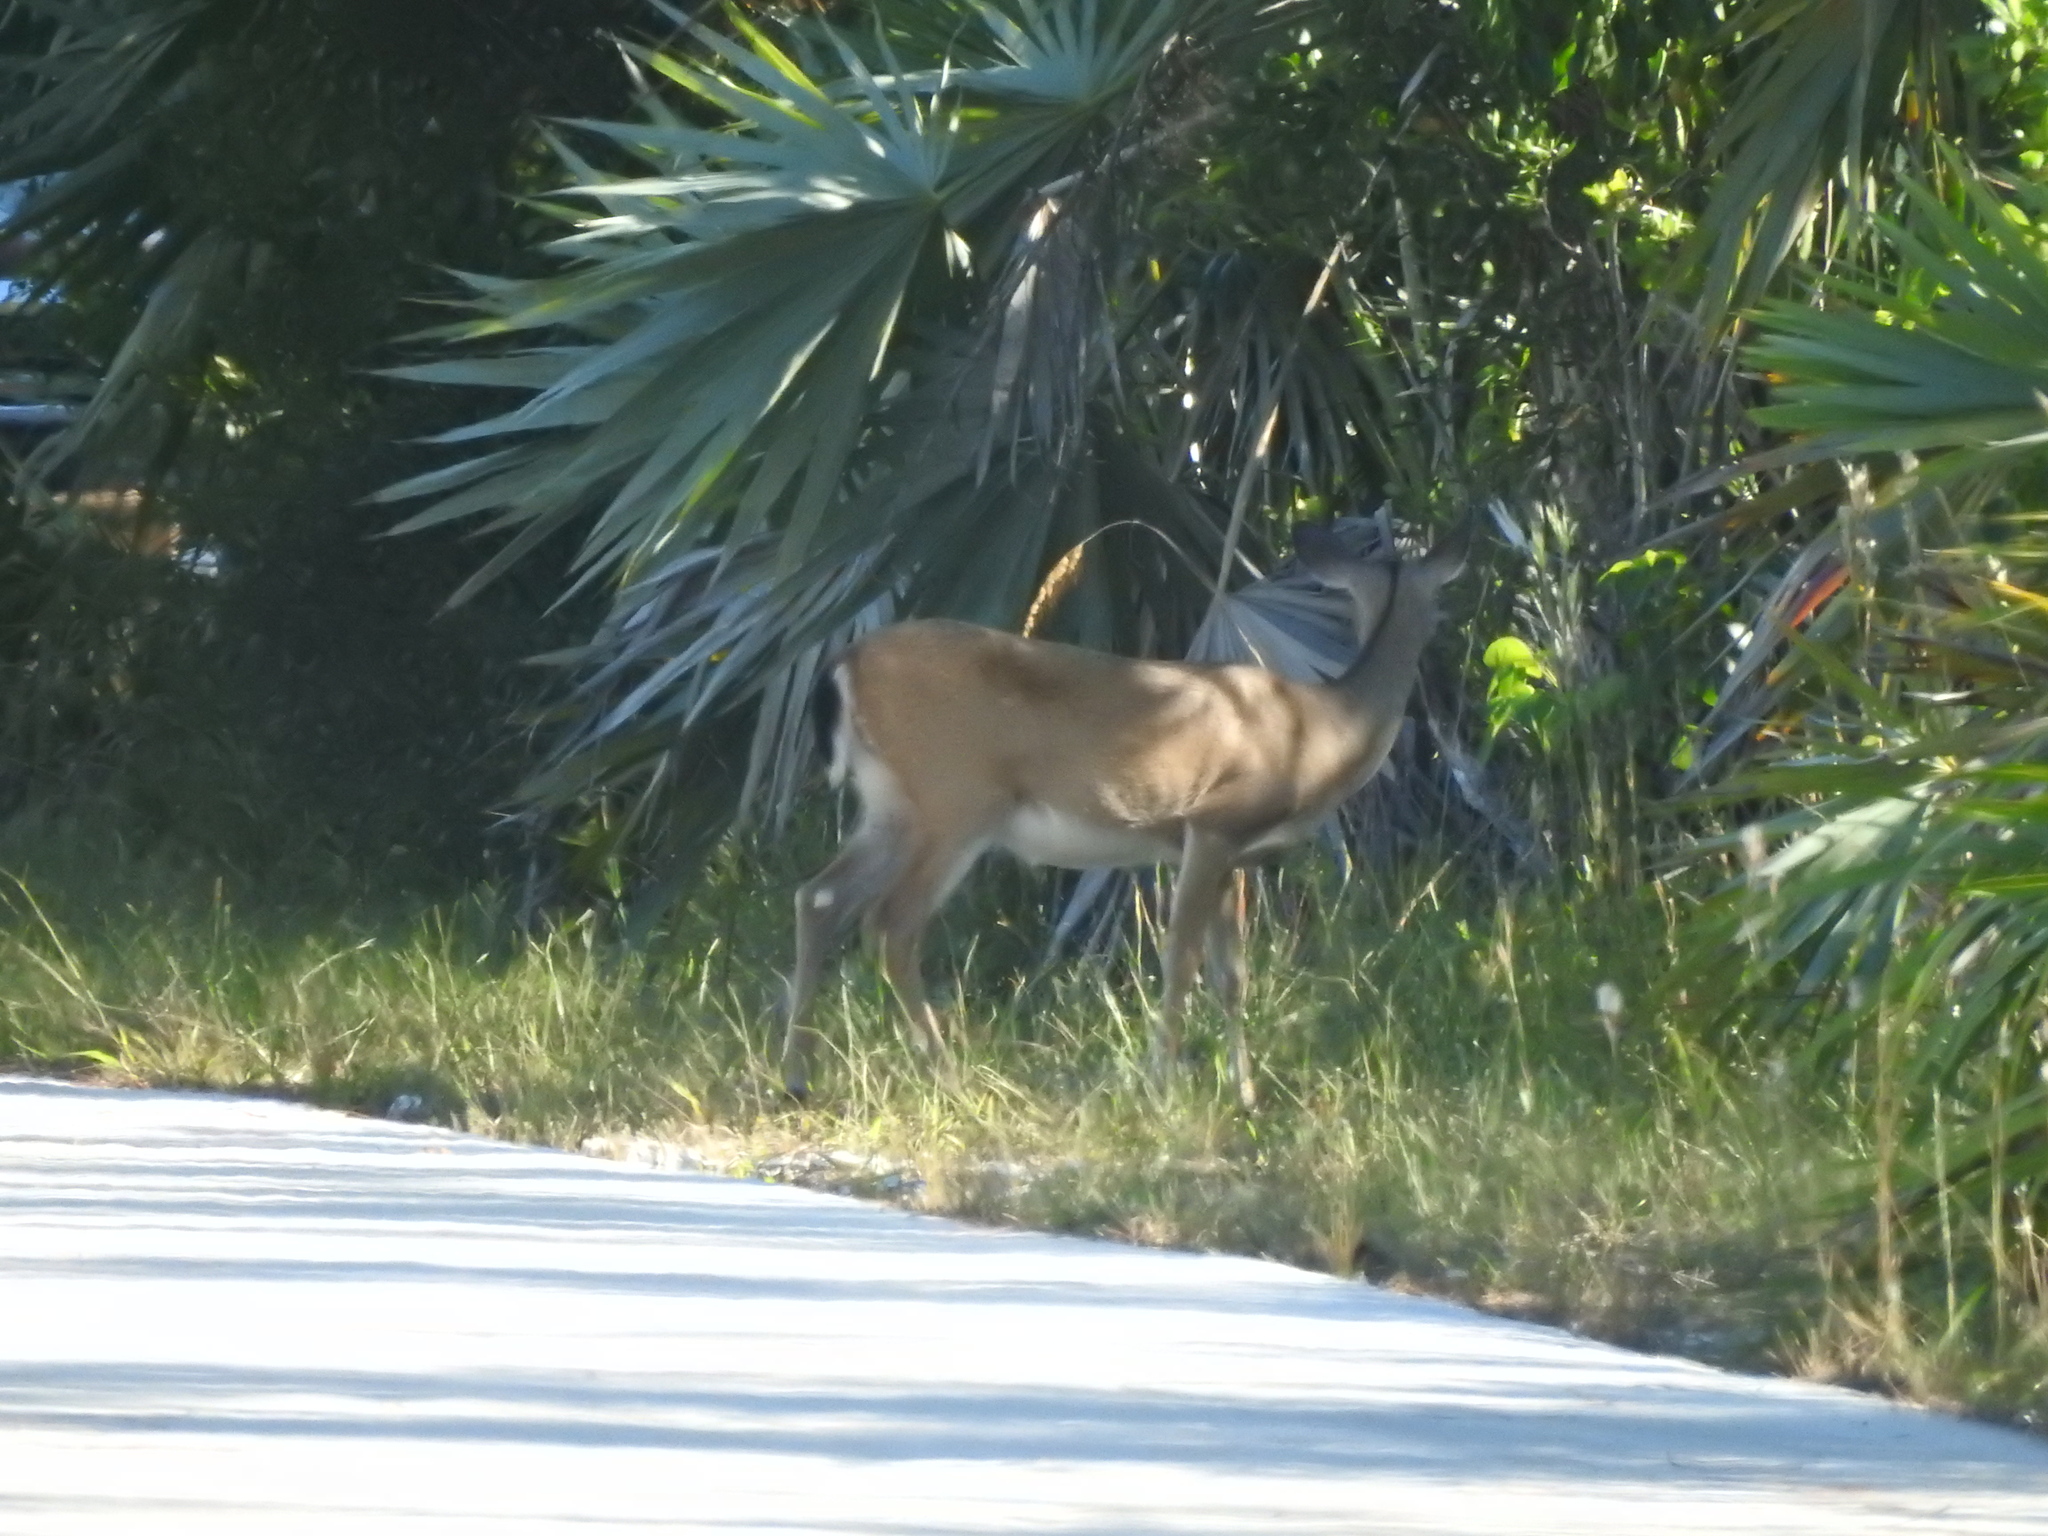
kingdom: Animalia
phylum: Chordata
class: Mammalia
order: Artiodactyla
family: Cervidae
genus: Odocoileus
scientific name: Odocoileus virginianus
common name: White-tailed deer
